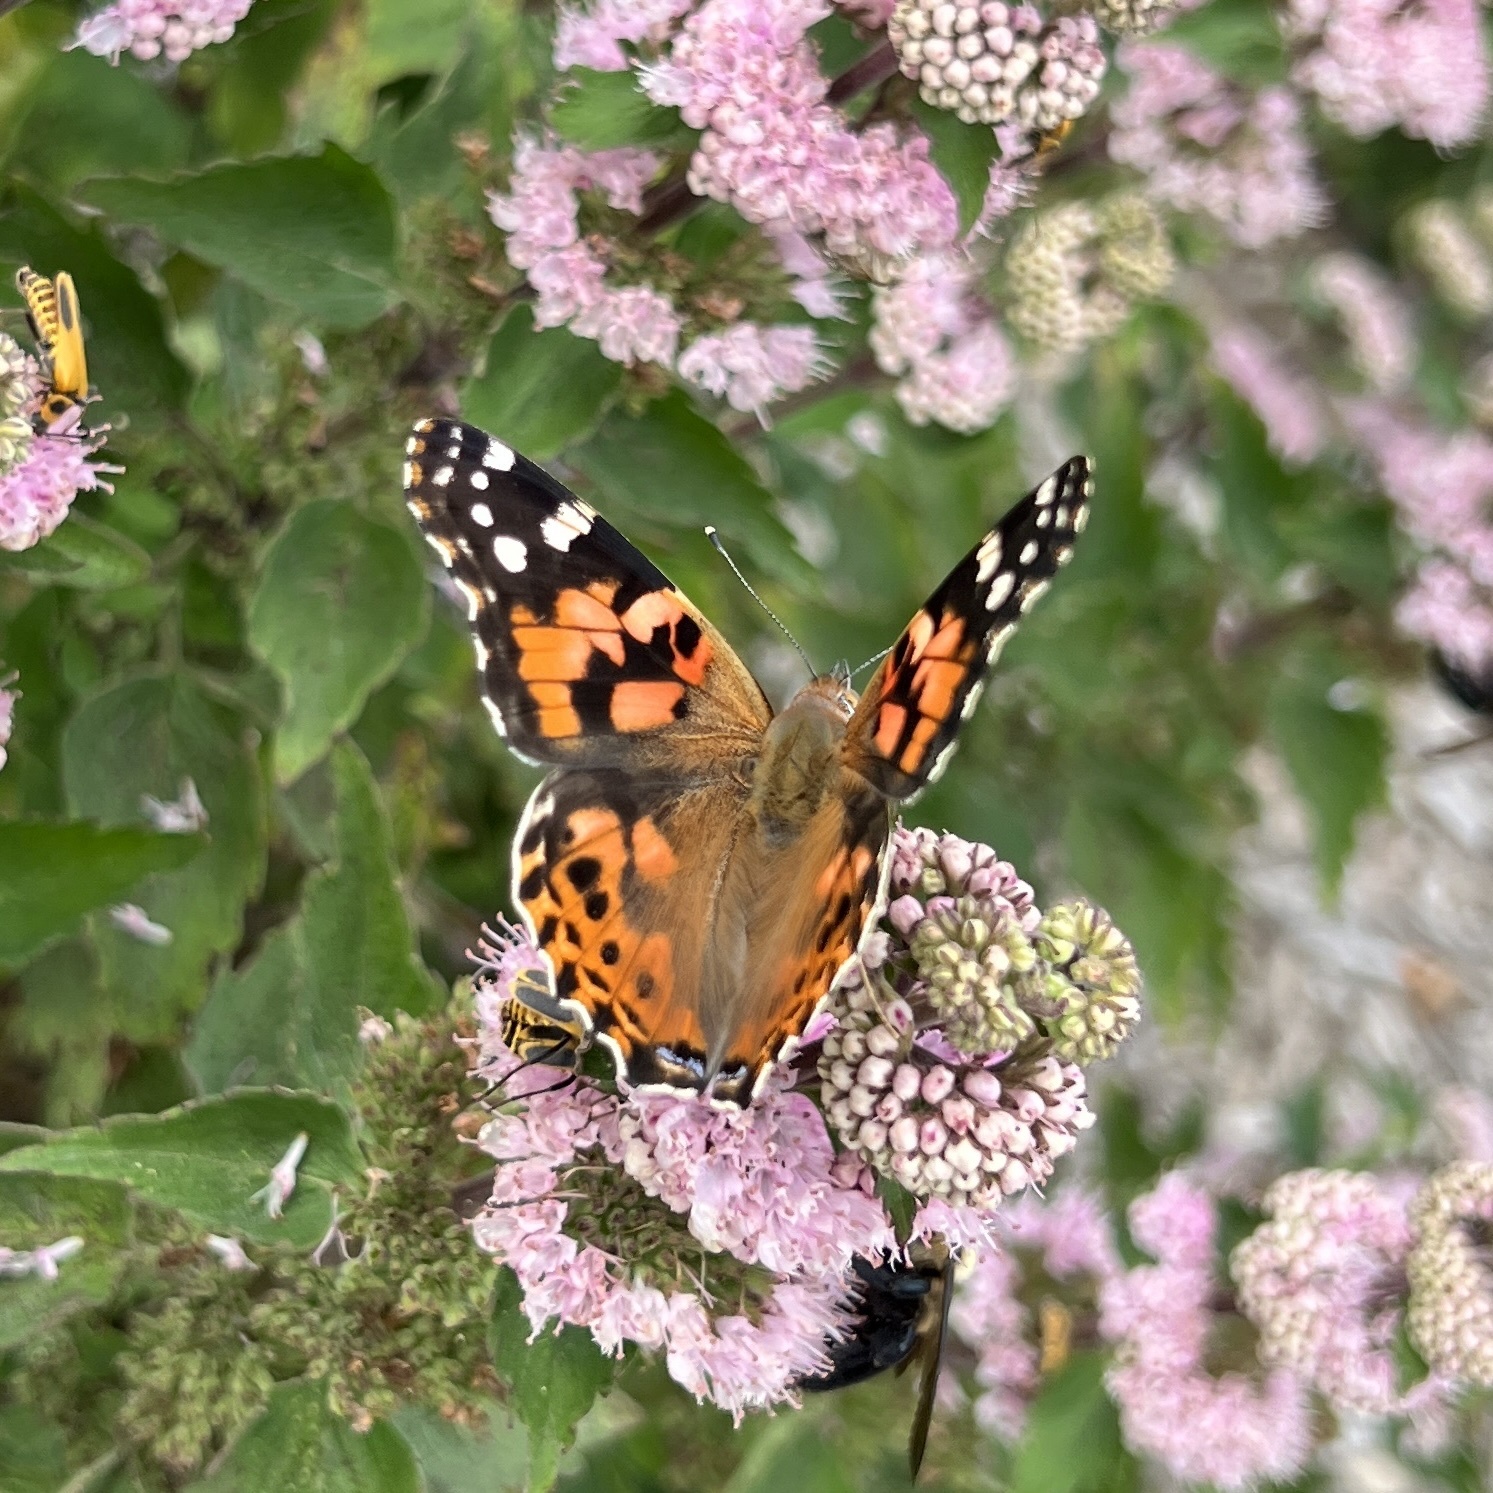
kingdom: Animalia
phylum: Arthropoda
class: Insecta
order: Lepidoptera
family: Nymphalidae
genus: Vanessa
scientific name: Vanessa cardui
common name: Painted lady
